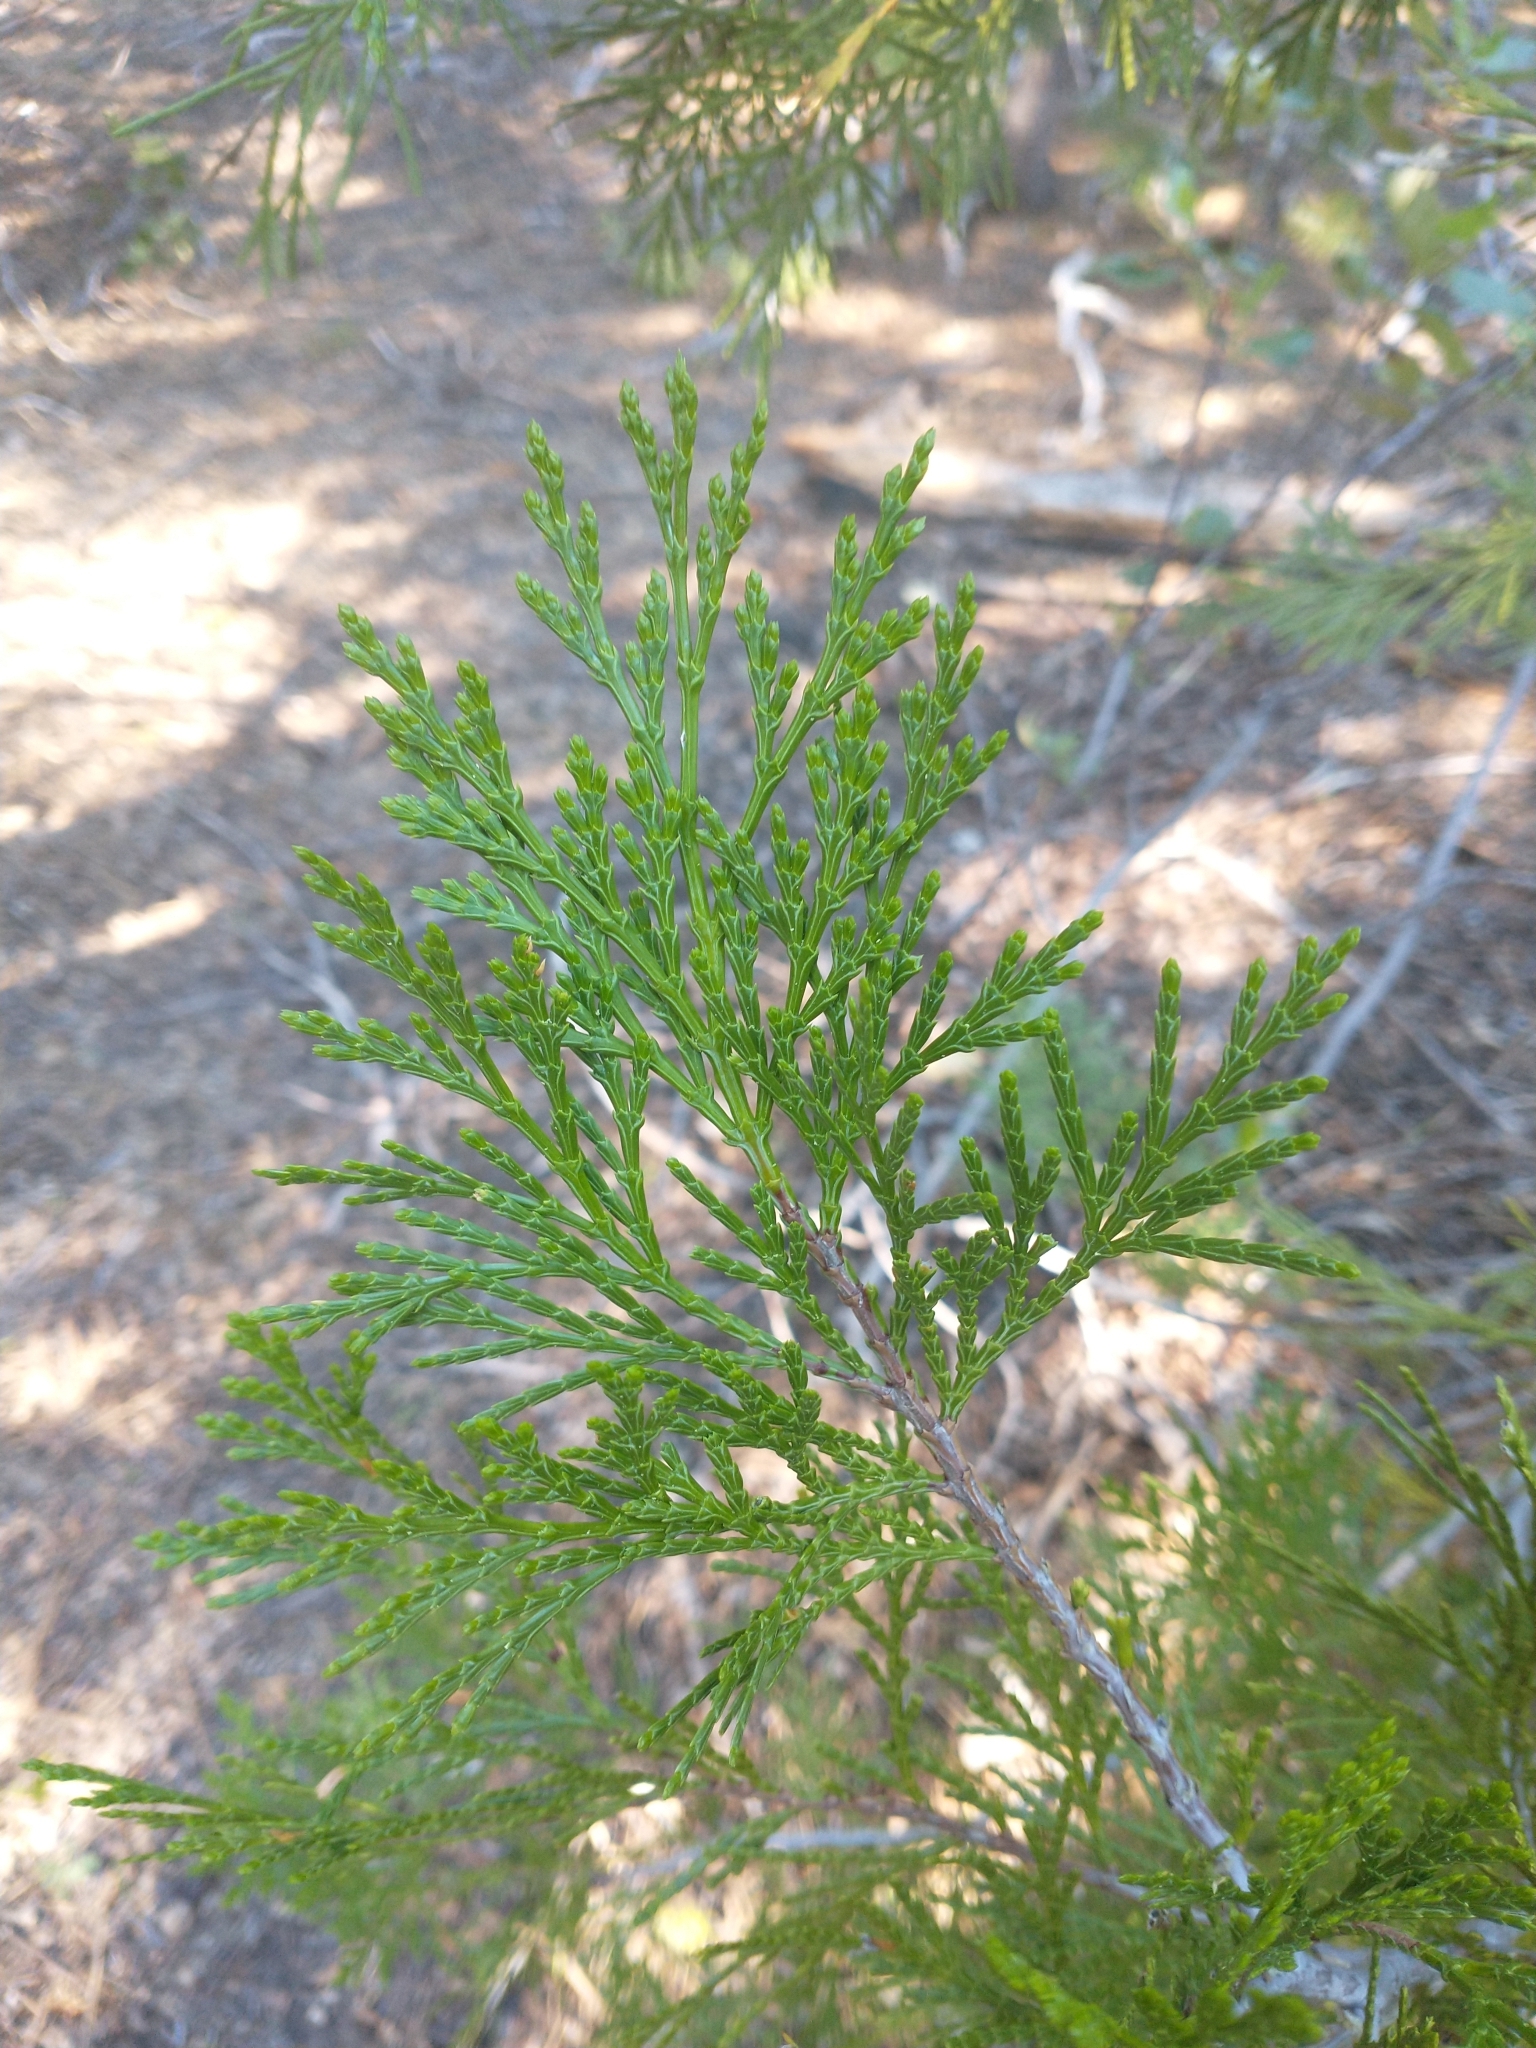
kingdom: Plantae
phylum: Tracheophyta
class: Pinopsida
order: Pinales
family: Cupressaceae
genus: Calocedrus
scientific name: Calocedrus decurrens
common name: Californian incense-cedar
